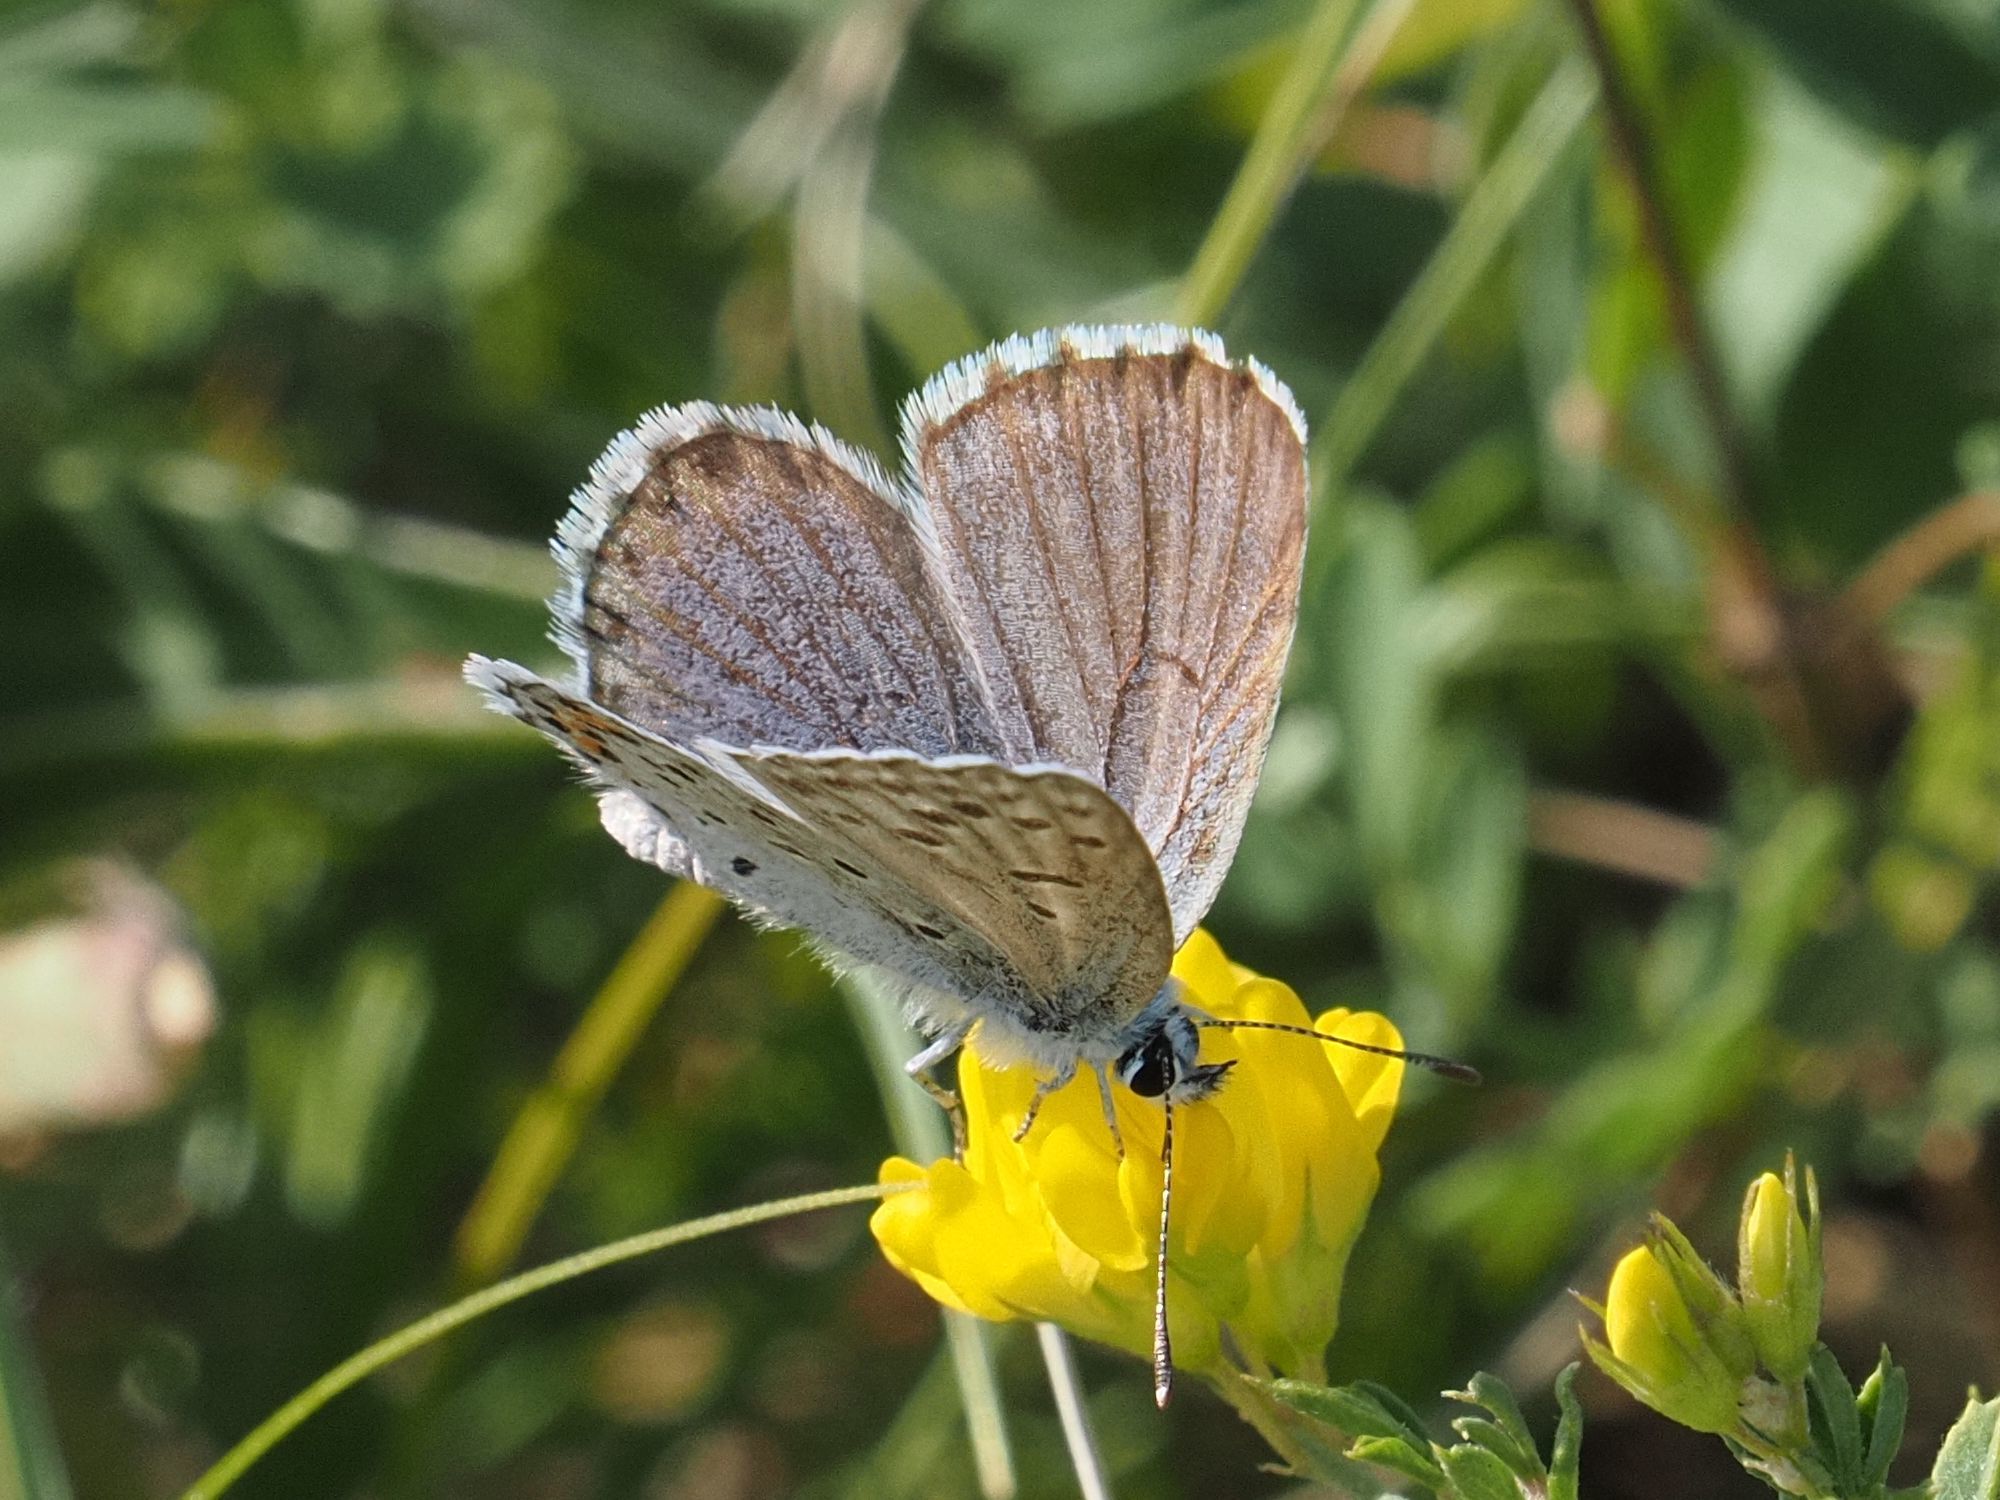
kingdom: Animalia
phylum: Arthropoda
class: Insecta
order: Lepidoptera
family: Lycaenidae
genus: Pseudophilotes
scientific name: Pseudophilotes baton
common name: Baton blue
